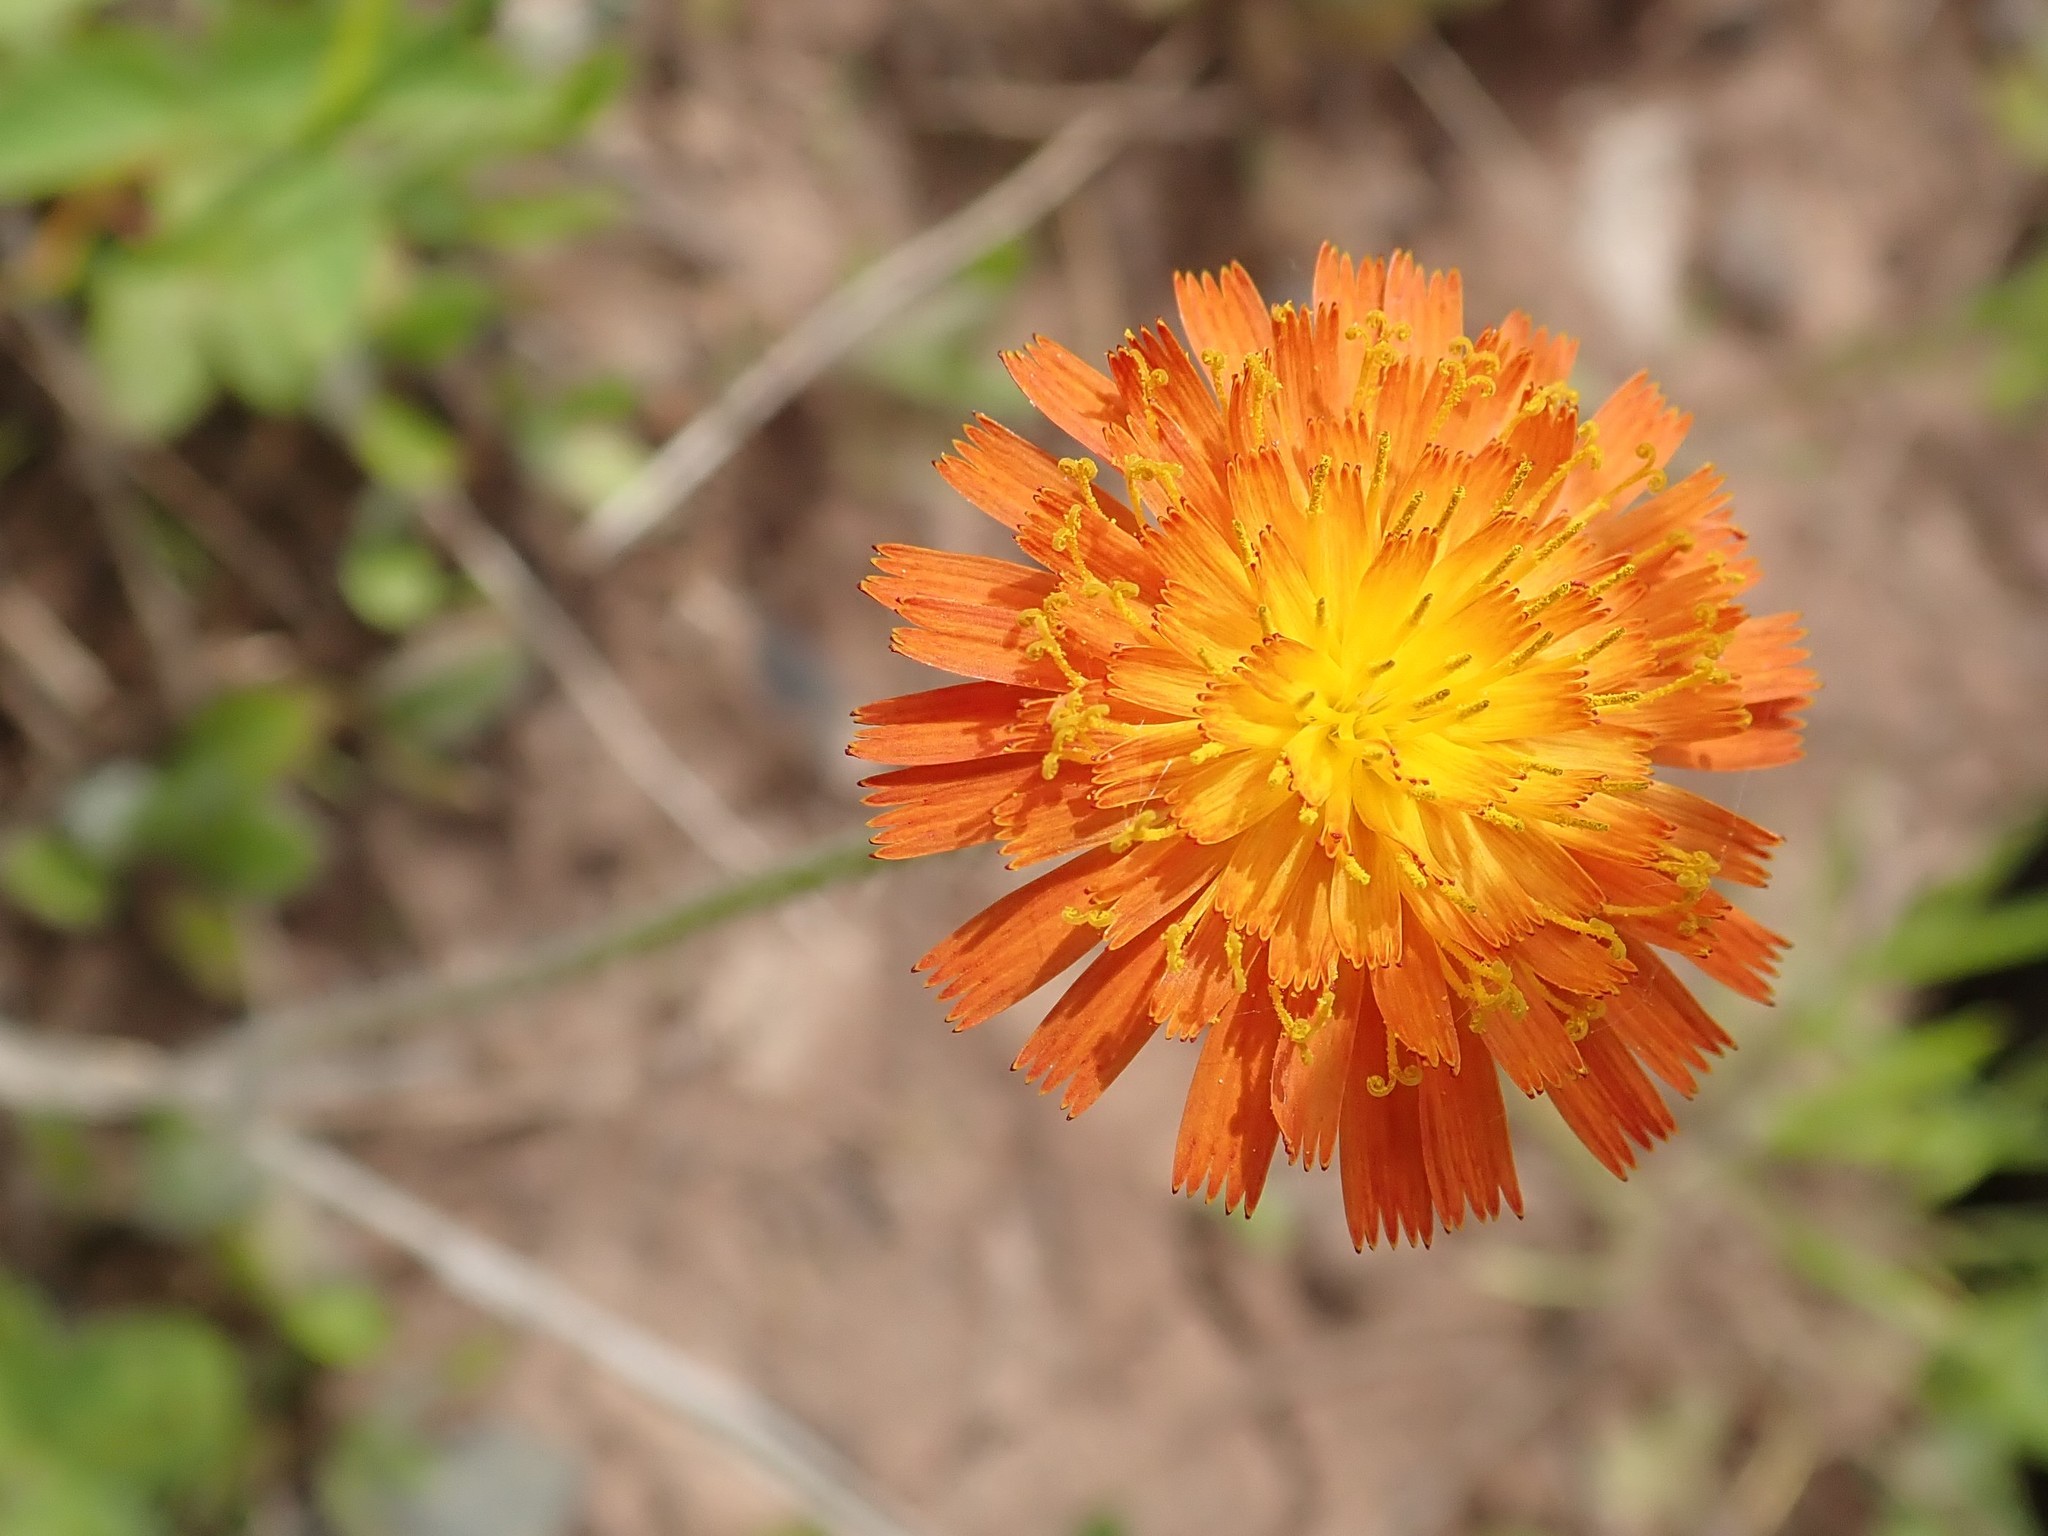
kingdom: Plantae
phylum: Tracheophyta
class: Magnoliopsida
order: Asterales
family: Asteraceae
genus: Pilosella
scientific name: Pilosella aurantiaca
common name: Fox-and-cubs
